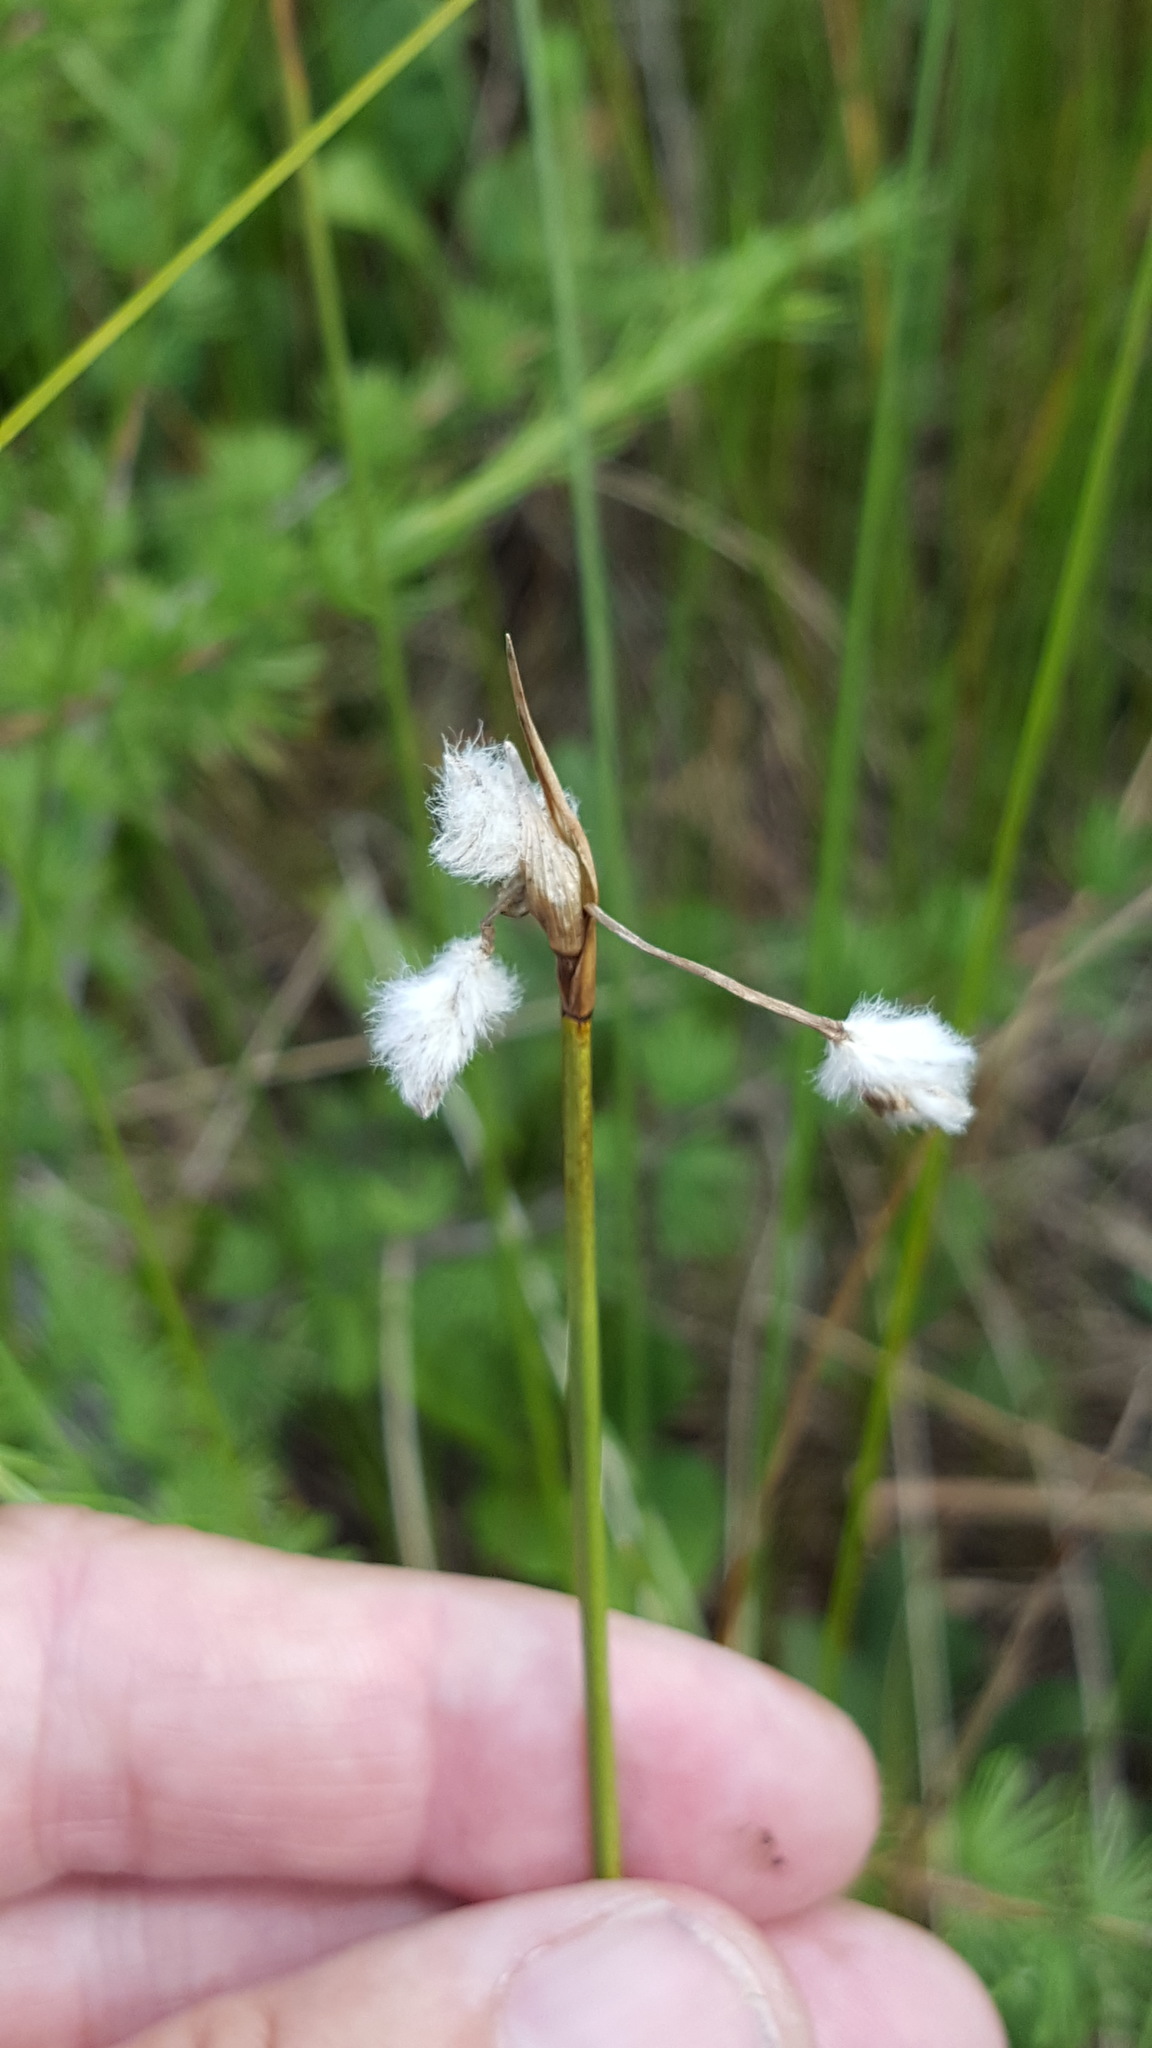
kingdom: Plantae
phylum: Tracheophyta
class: Liliopsida
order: Poales
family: Cyperaceae
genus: Eriophorum
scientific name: Eriophorum gracile
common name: Slender cottongrass
